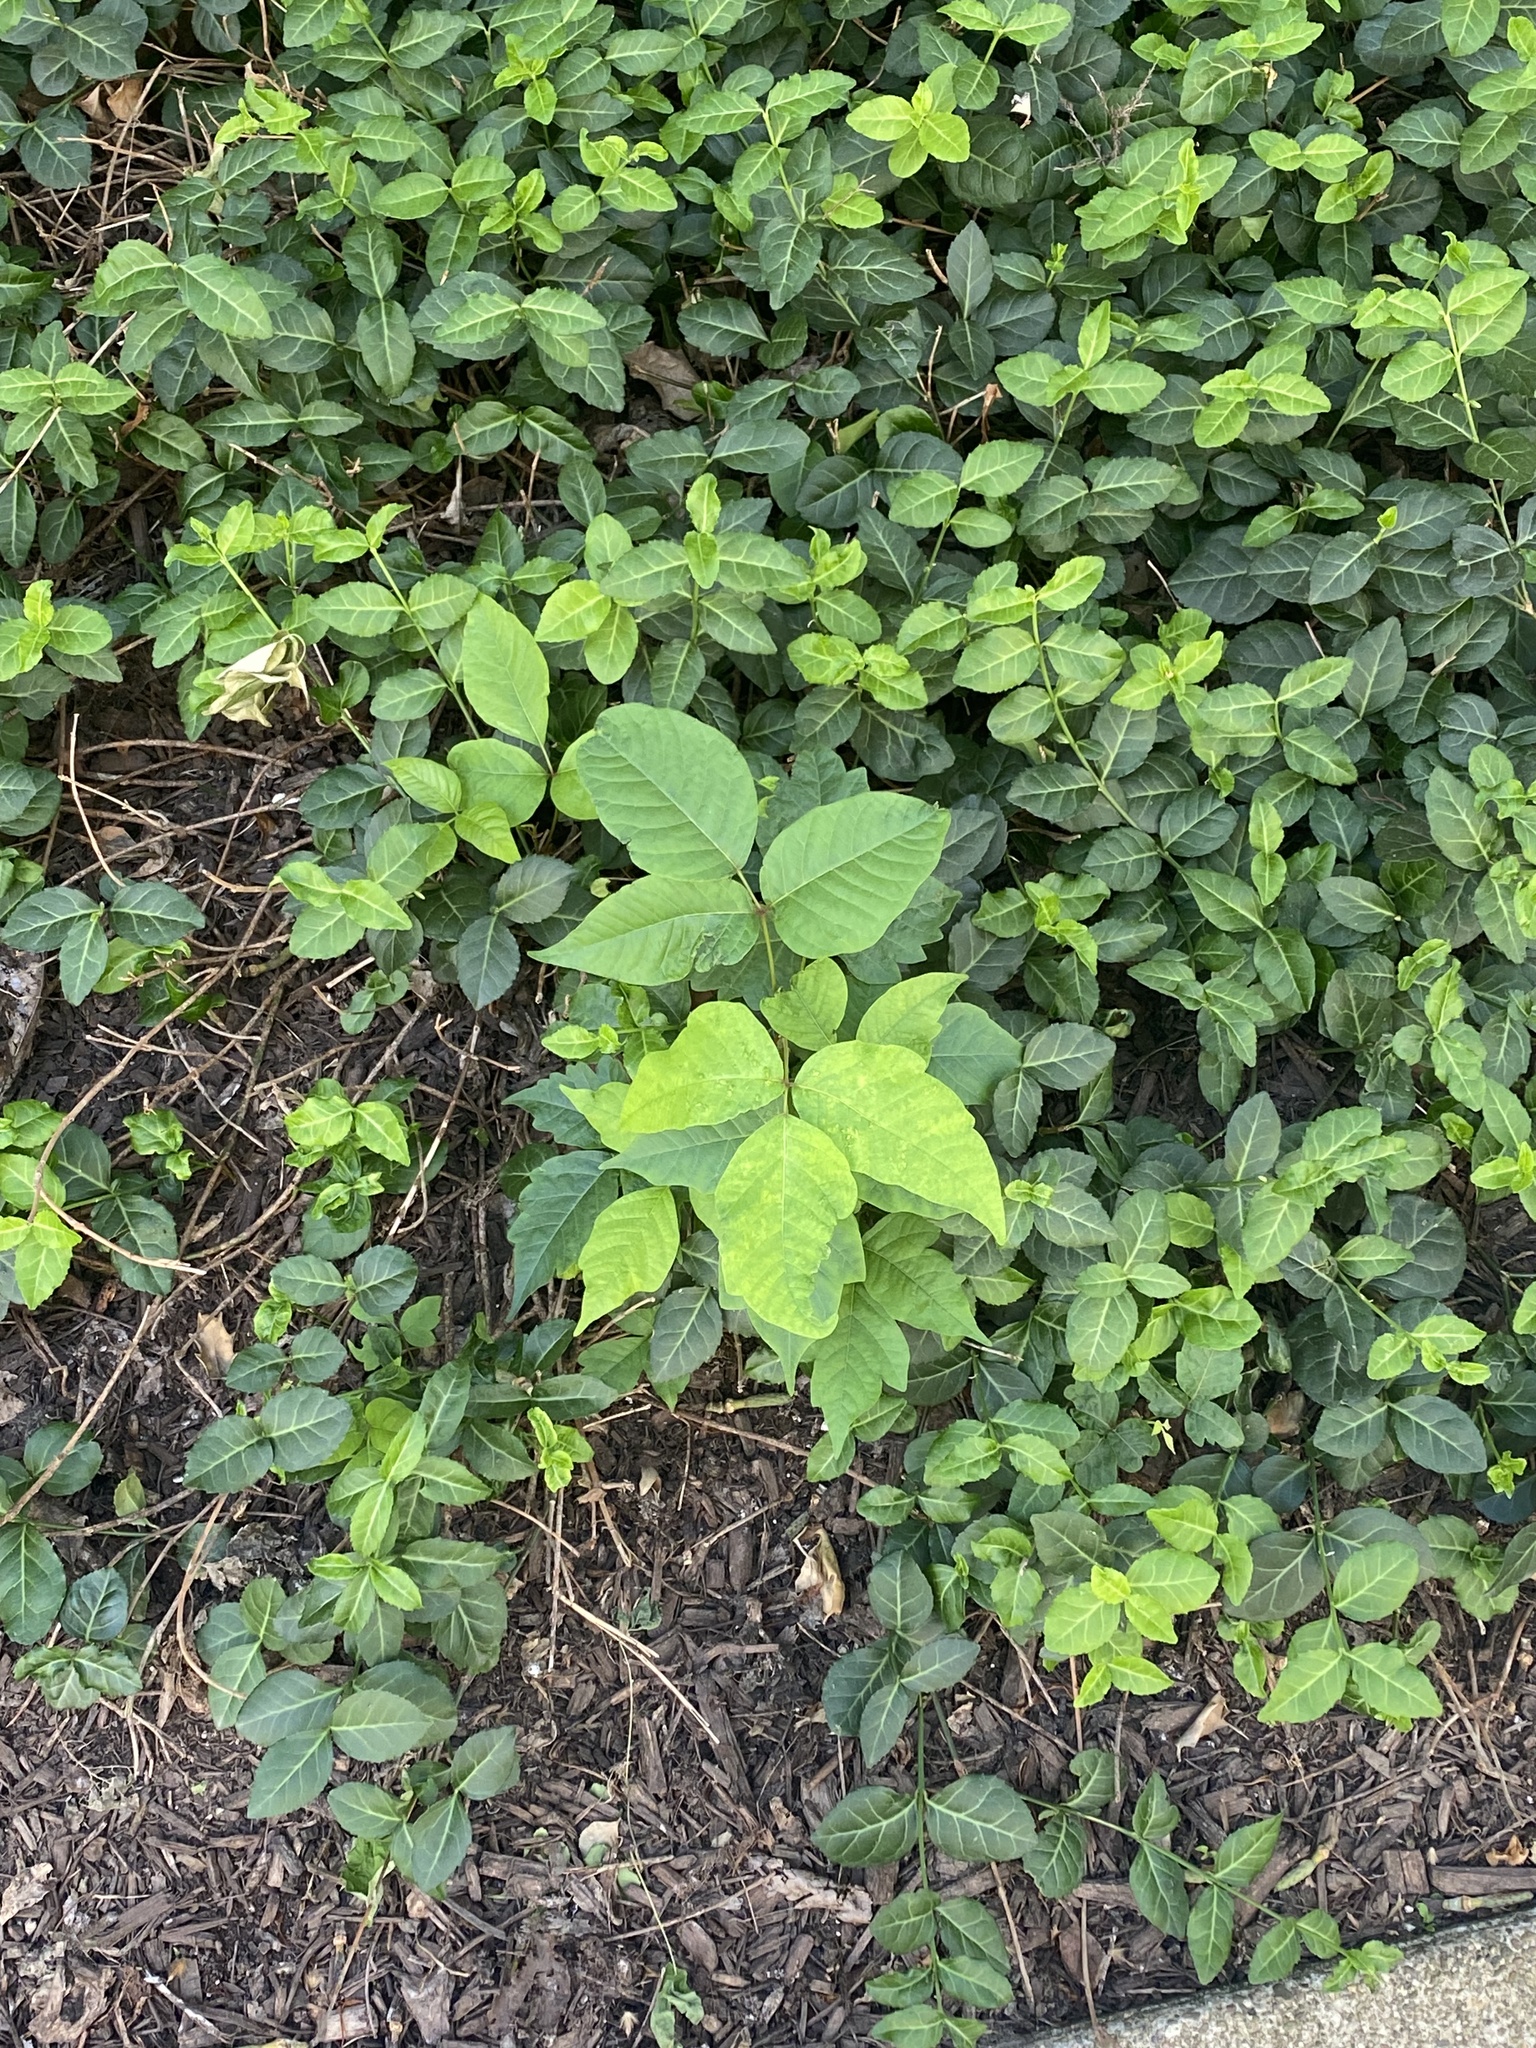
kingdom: Plantae
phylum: Tracheophyta
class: Magnoliopsida
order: Sapindales
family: Anacardiaceae
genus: Toxicodendron
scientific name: Toxicodendron radicans
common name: Poison ivy
